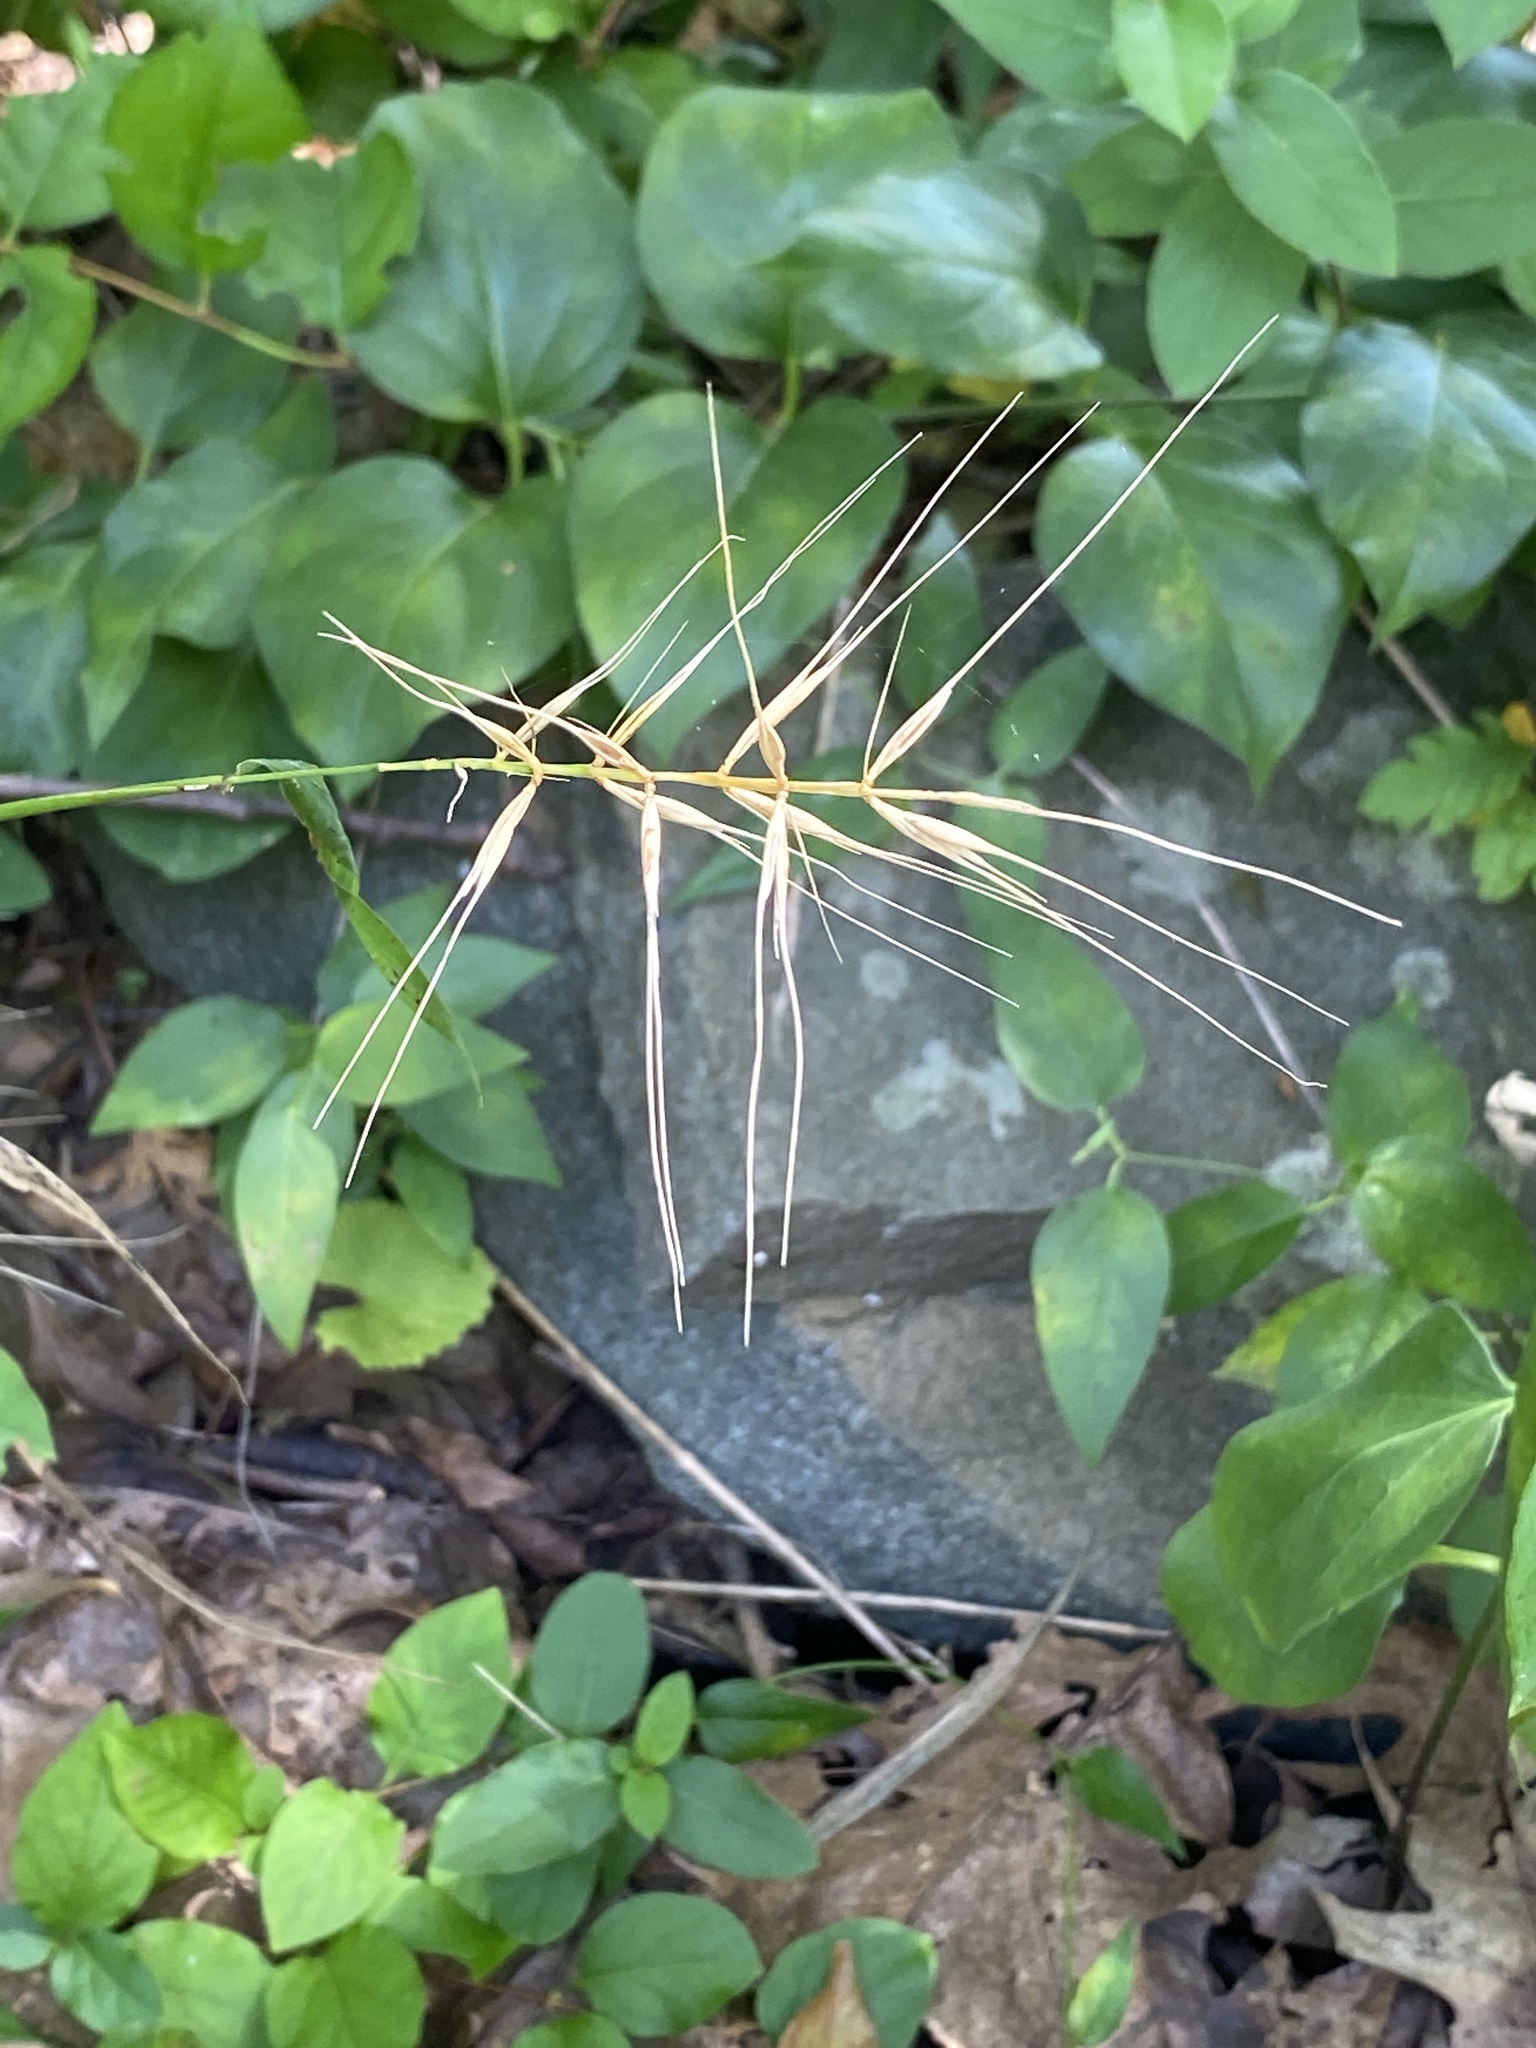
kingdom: Plantae
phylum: Tracheophyta
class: Liliopsida
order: Poales
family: Poaceae
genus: Elymus
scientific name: Elymus hystrix
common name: Bottlebrush grass
